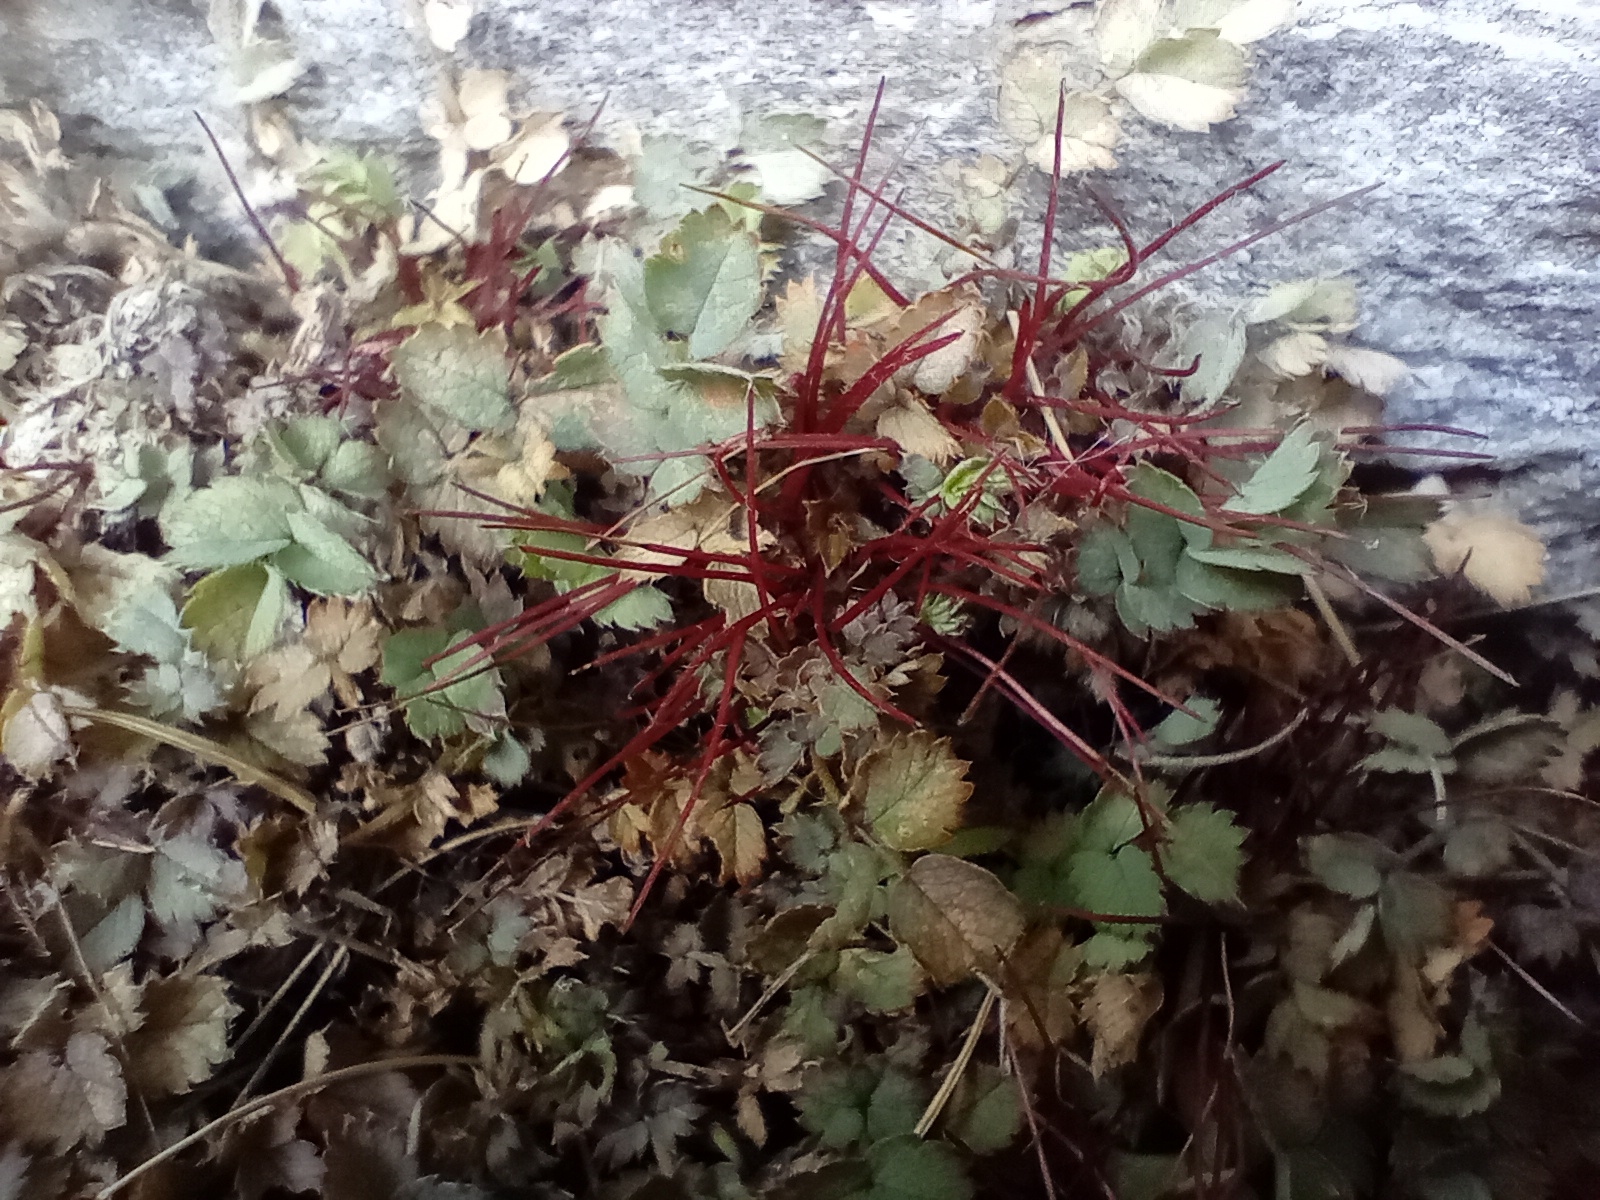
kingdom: Plantae
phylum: Tracheophyta
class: Magnoliopsida
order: Rosales
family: Rosaceae
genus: Acaena
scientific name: Acaena tesca
